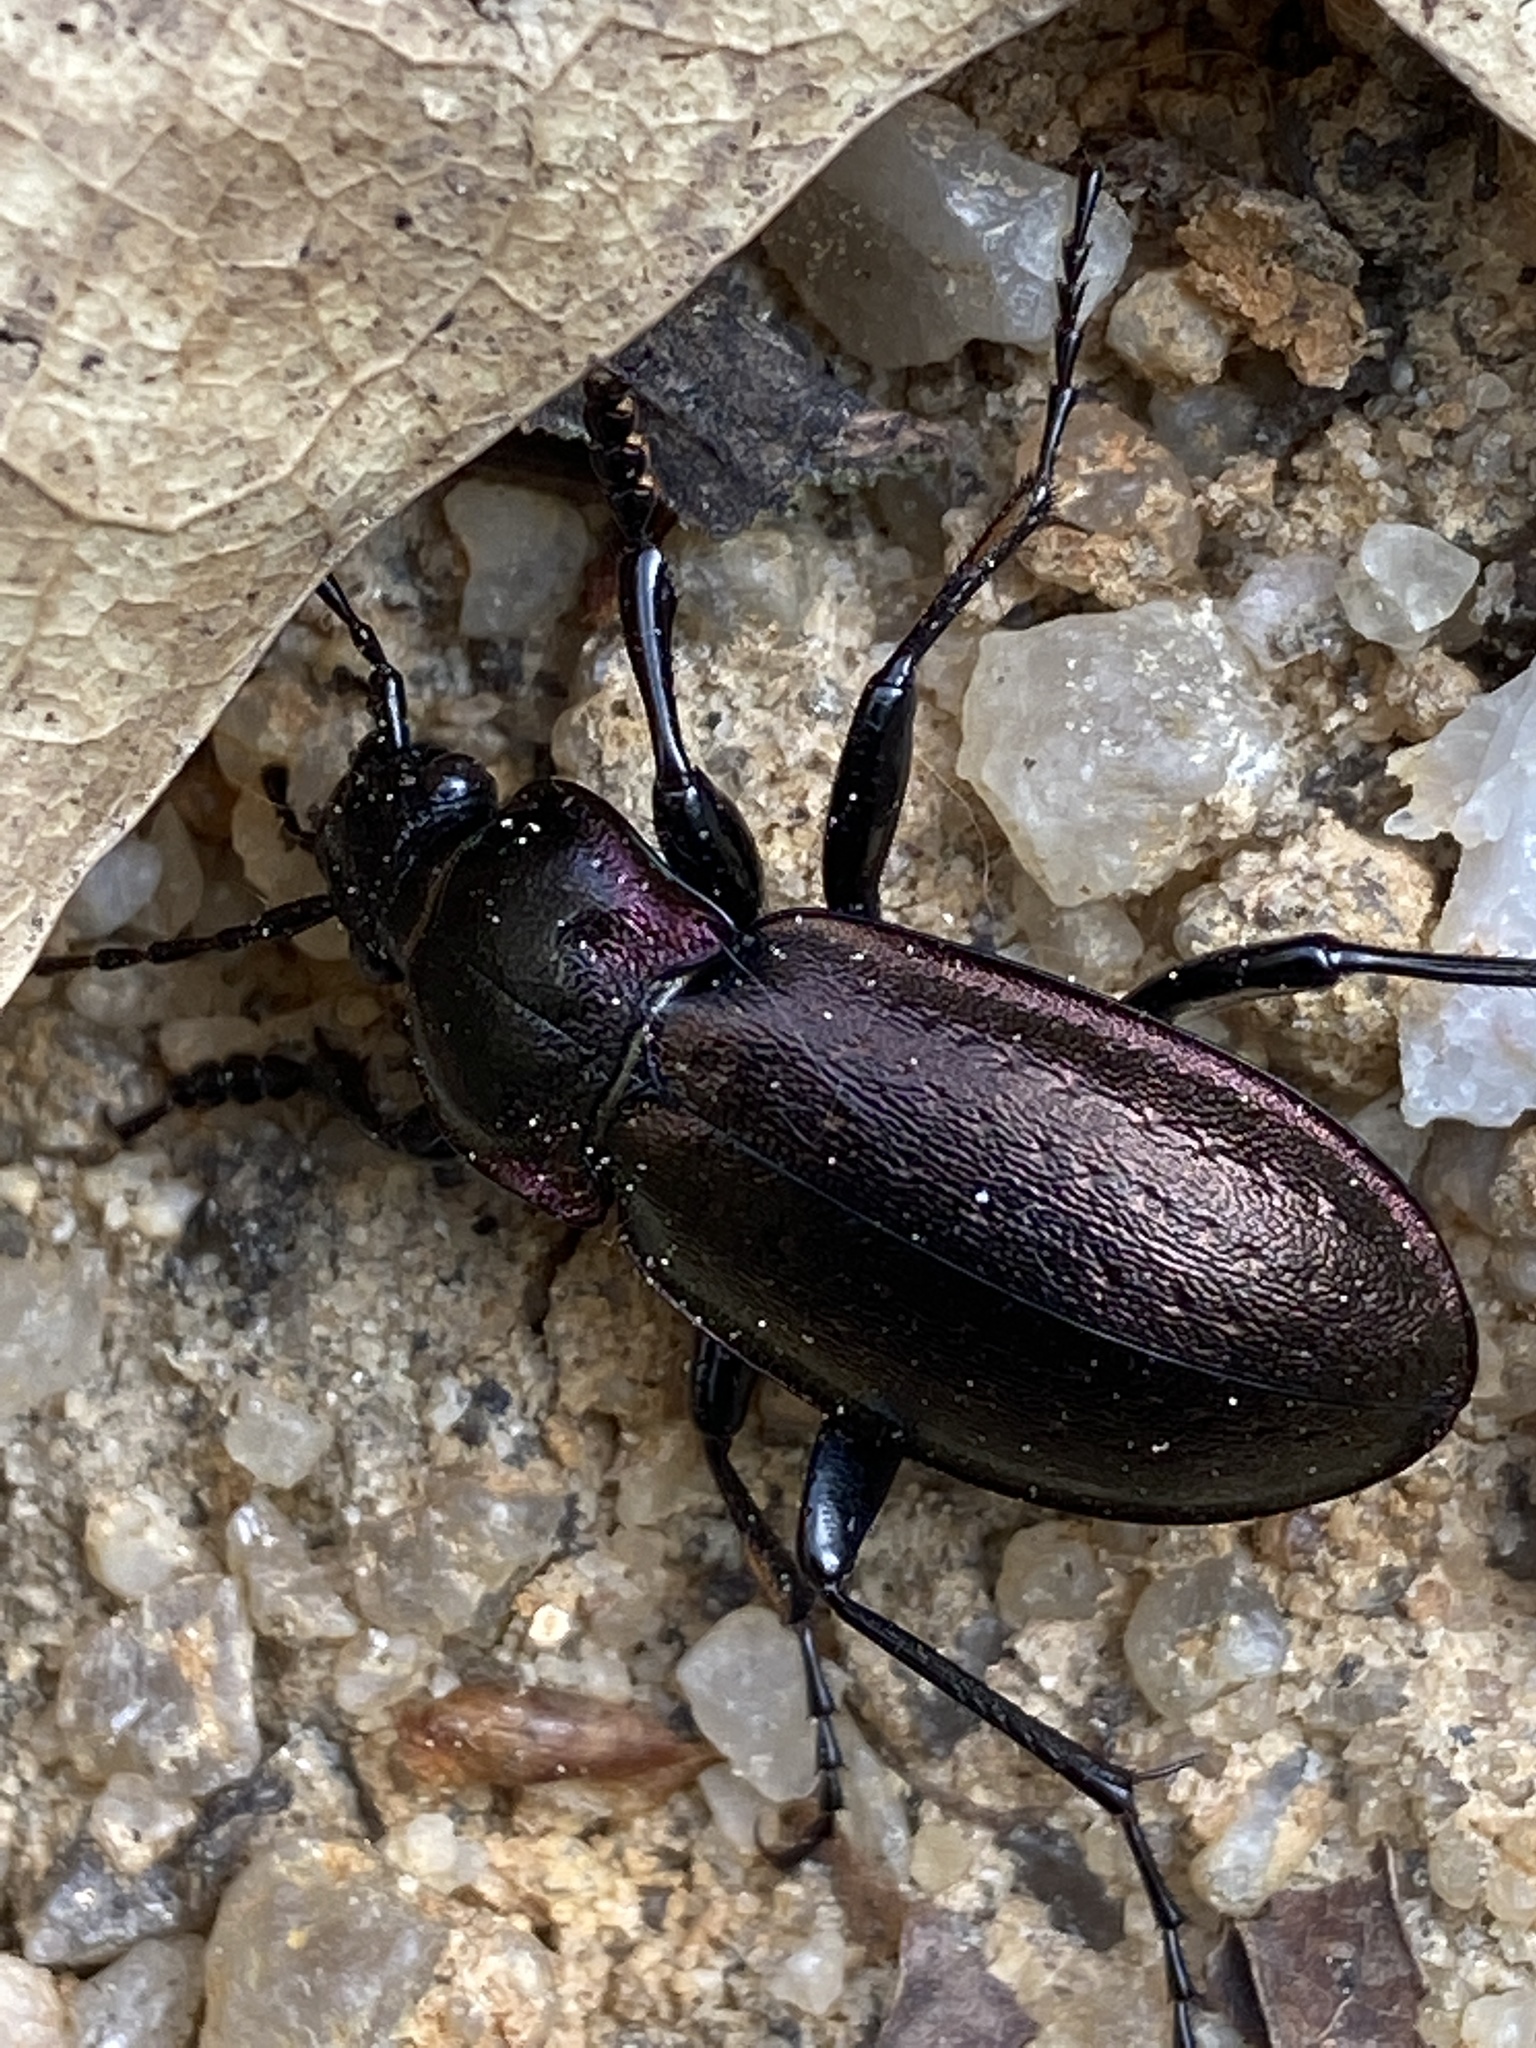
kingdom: Animalia
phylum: Arthropoda
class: Insecta
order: Coleoptera
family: Carabidae
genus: Carabus
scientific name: Carabus nemoralis
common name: European ground beetle
